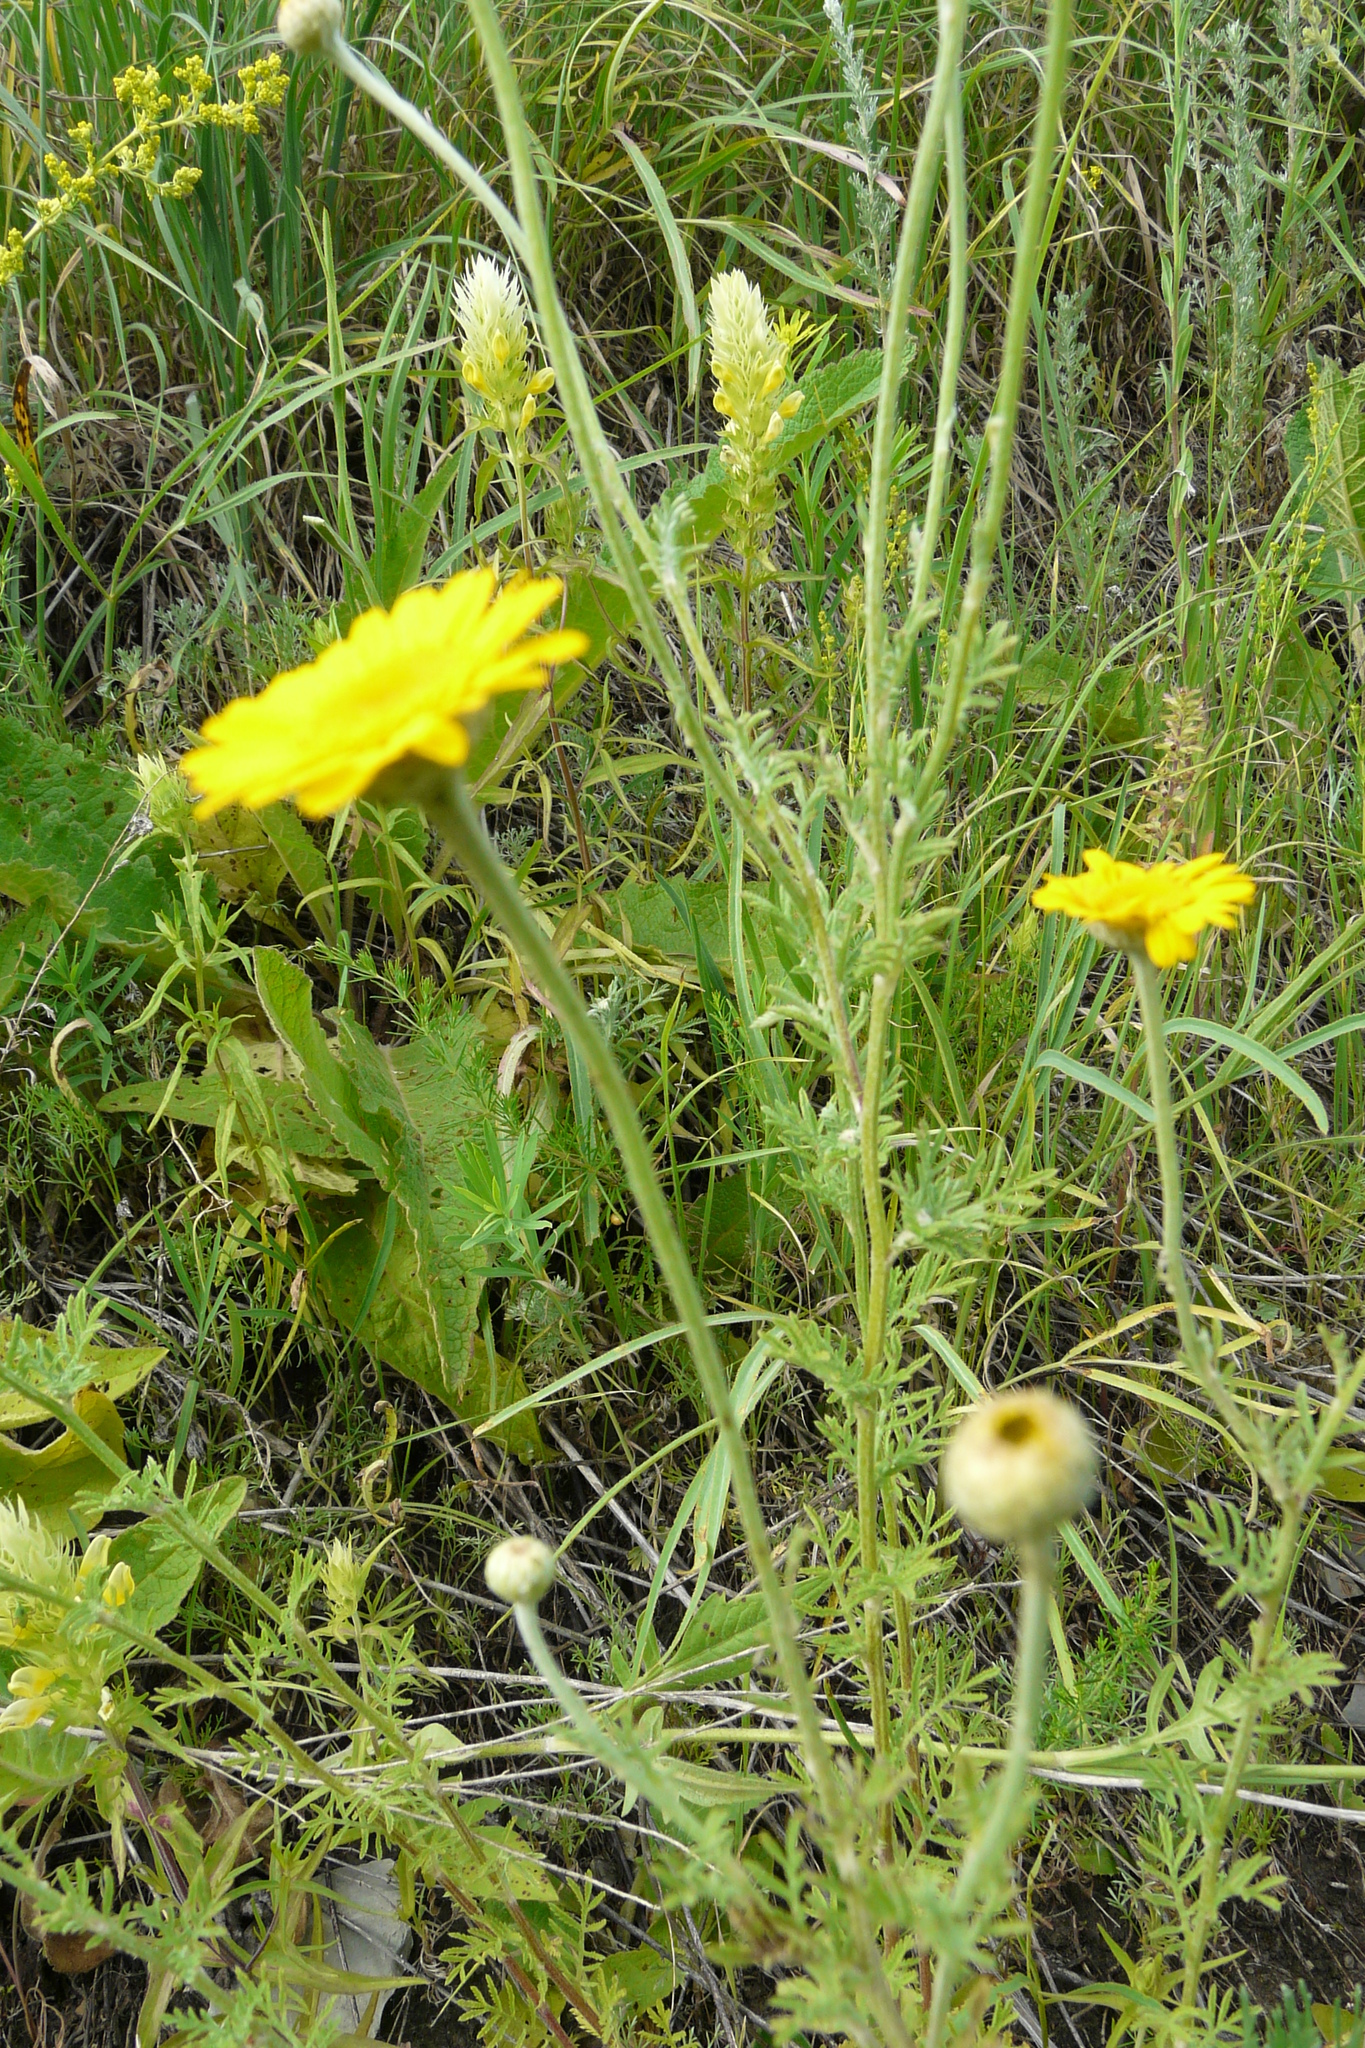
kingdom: Plantae
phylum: Tracheophyta
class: Magnoliopsida
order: Asterales
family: Asteraceae
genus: Cota
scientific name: Cota tinctoria
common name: Golden chamomile
